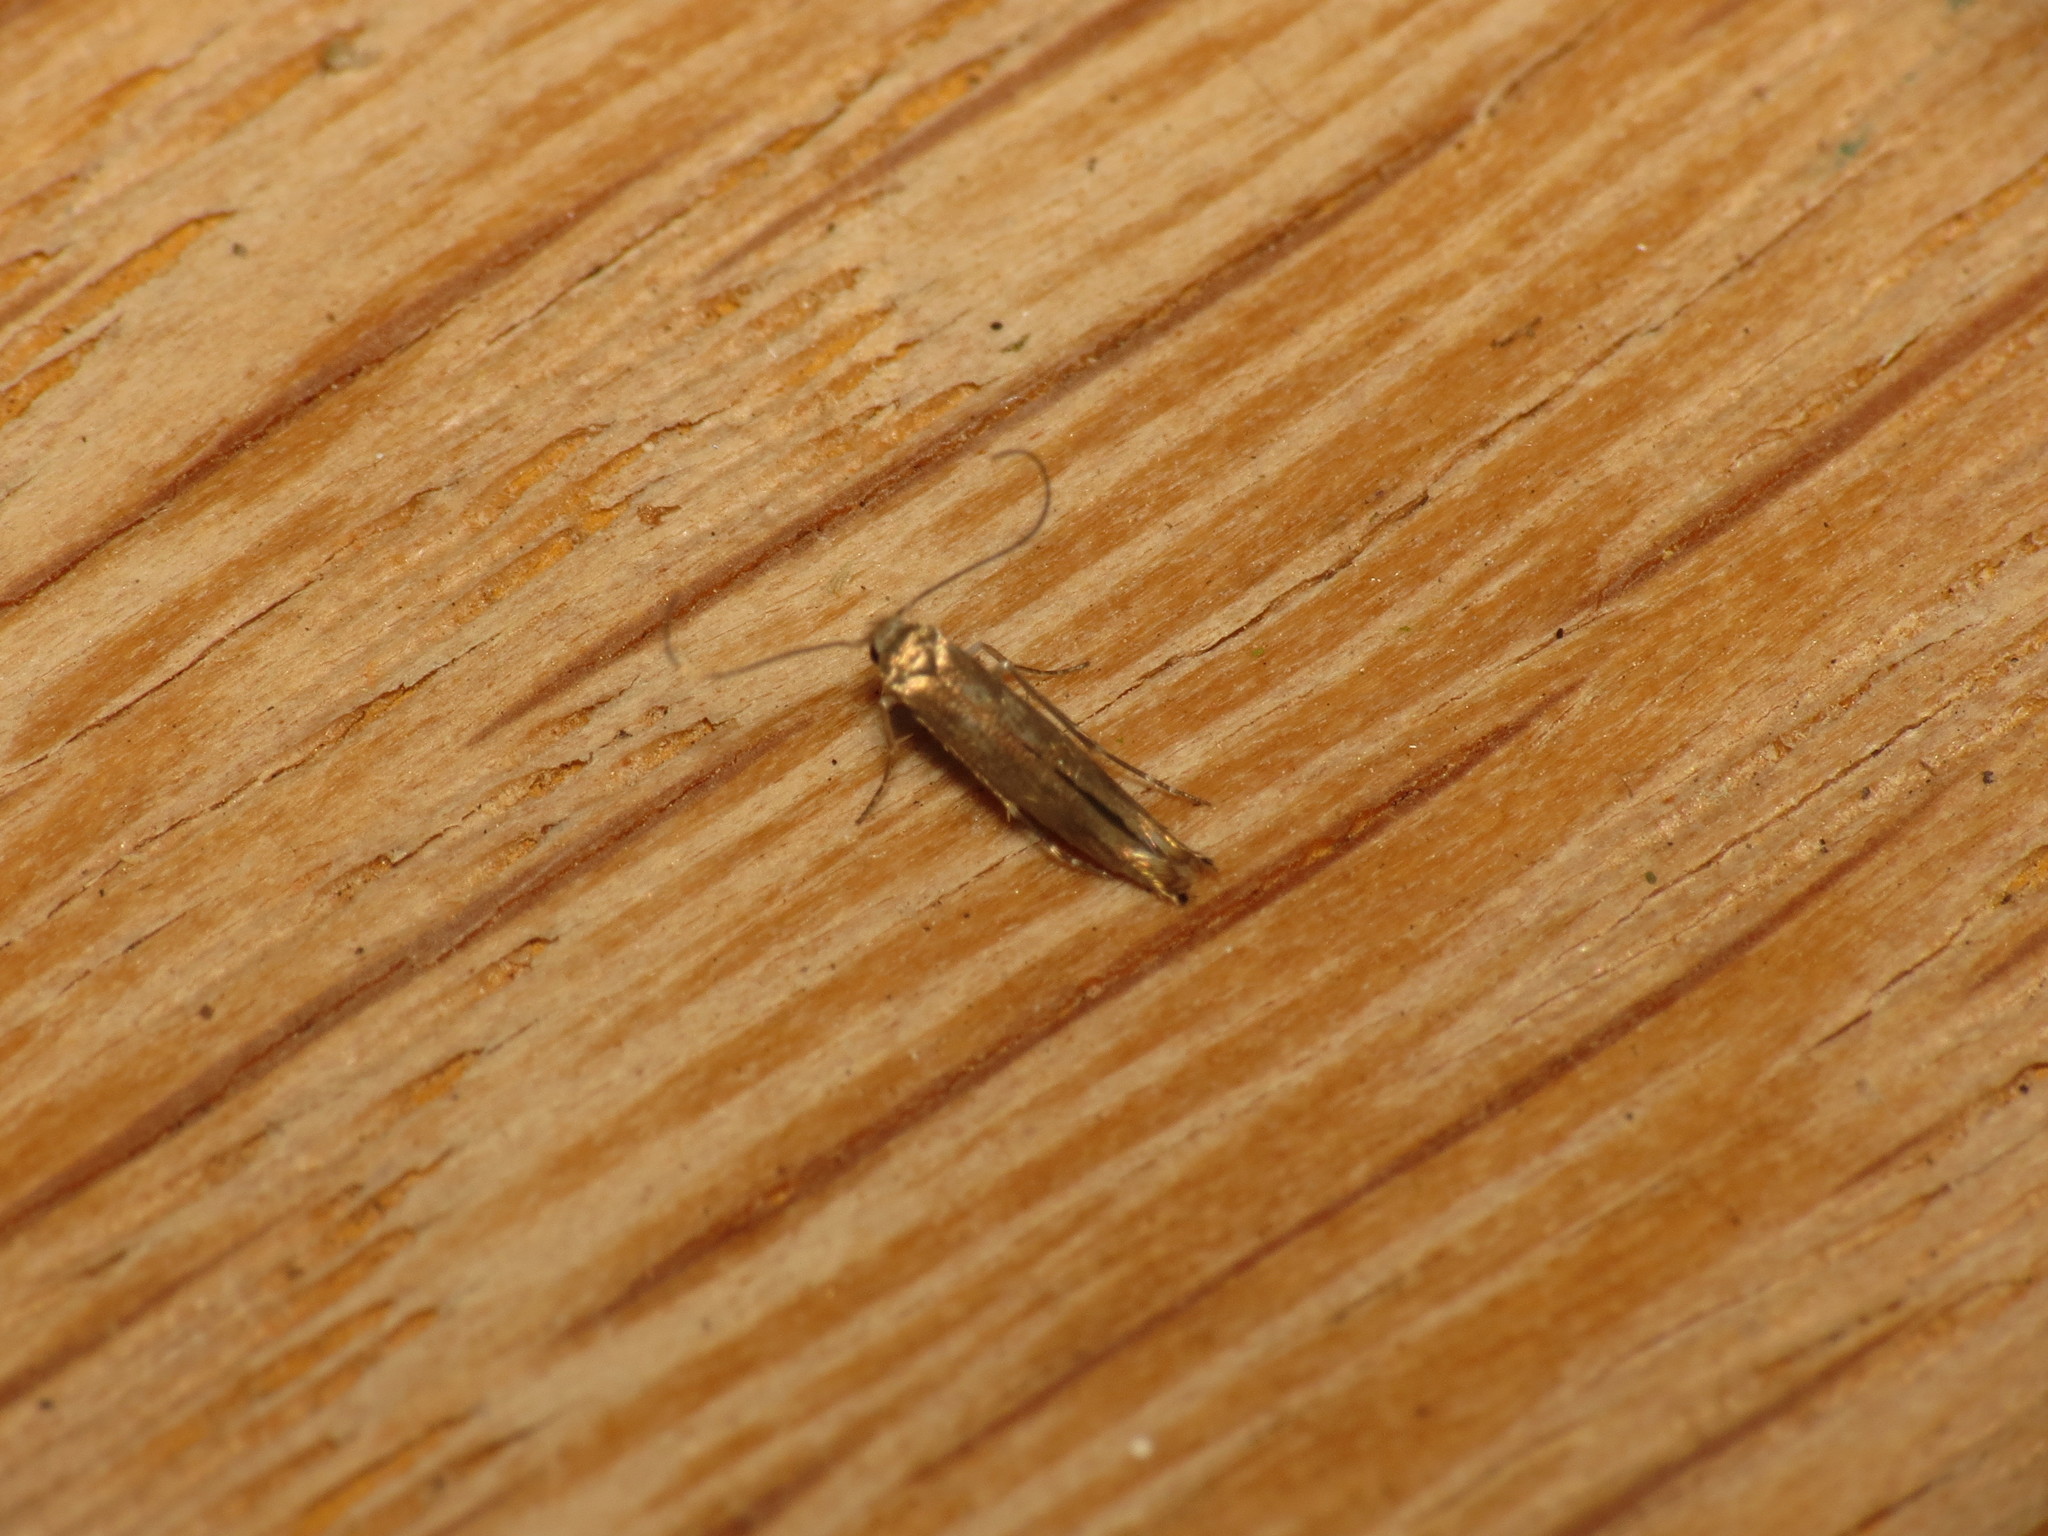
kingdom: Animalia
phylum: Arthropoda
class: Insecta
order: Lepidoptera
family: Lyonetiidae
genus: Lyonetia
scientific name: Lyonetia clerkella
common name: Apple leaf miner
